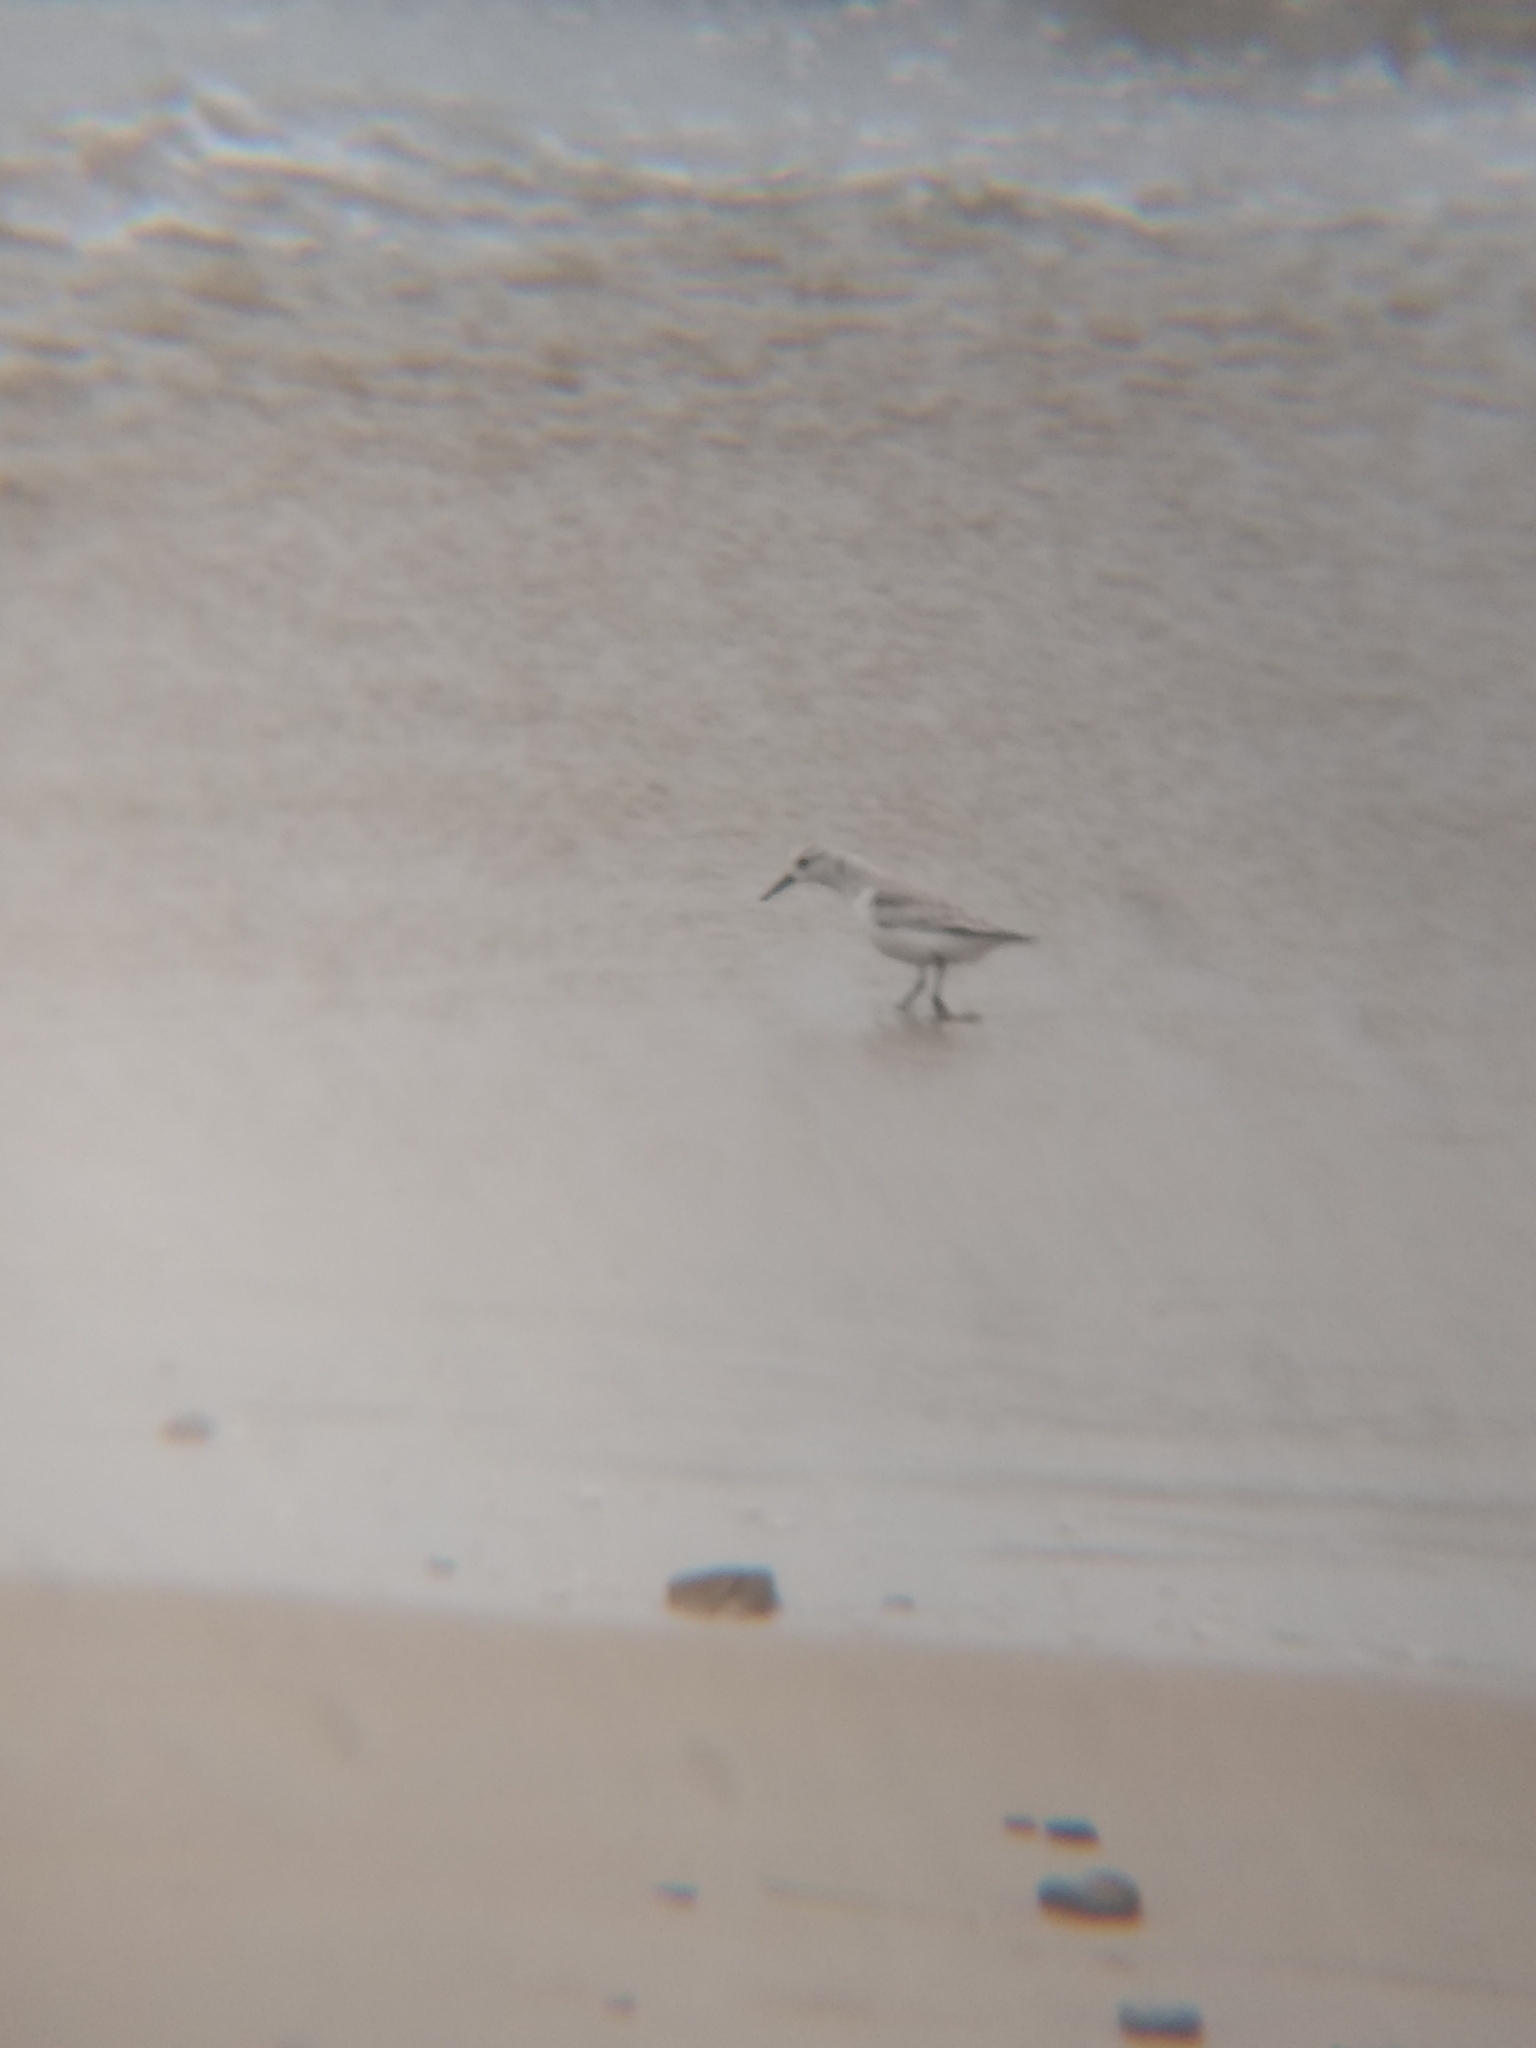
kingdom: Animalia
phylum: Chordata
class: Aves
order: Charadriiformes
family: Scolopacidae
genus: Calidris
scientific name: Calidris alba
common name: Sanderling
